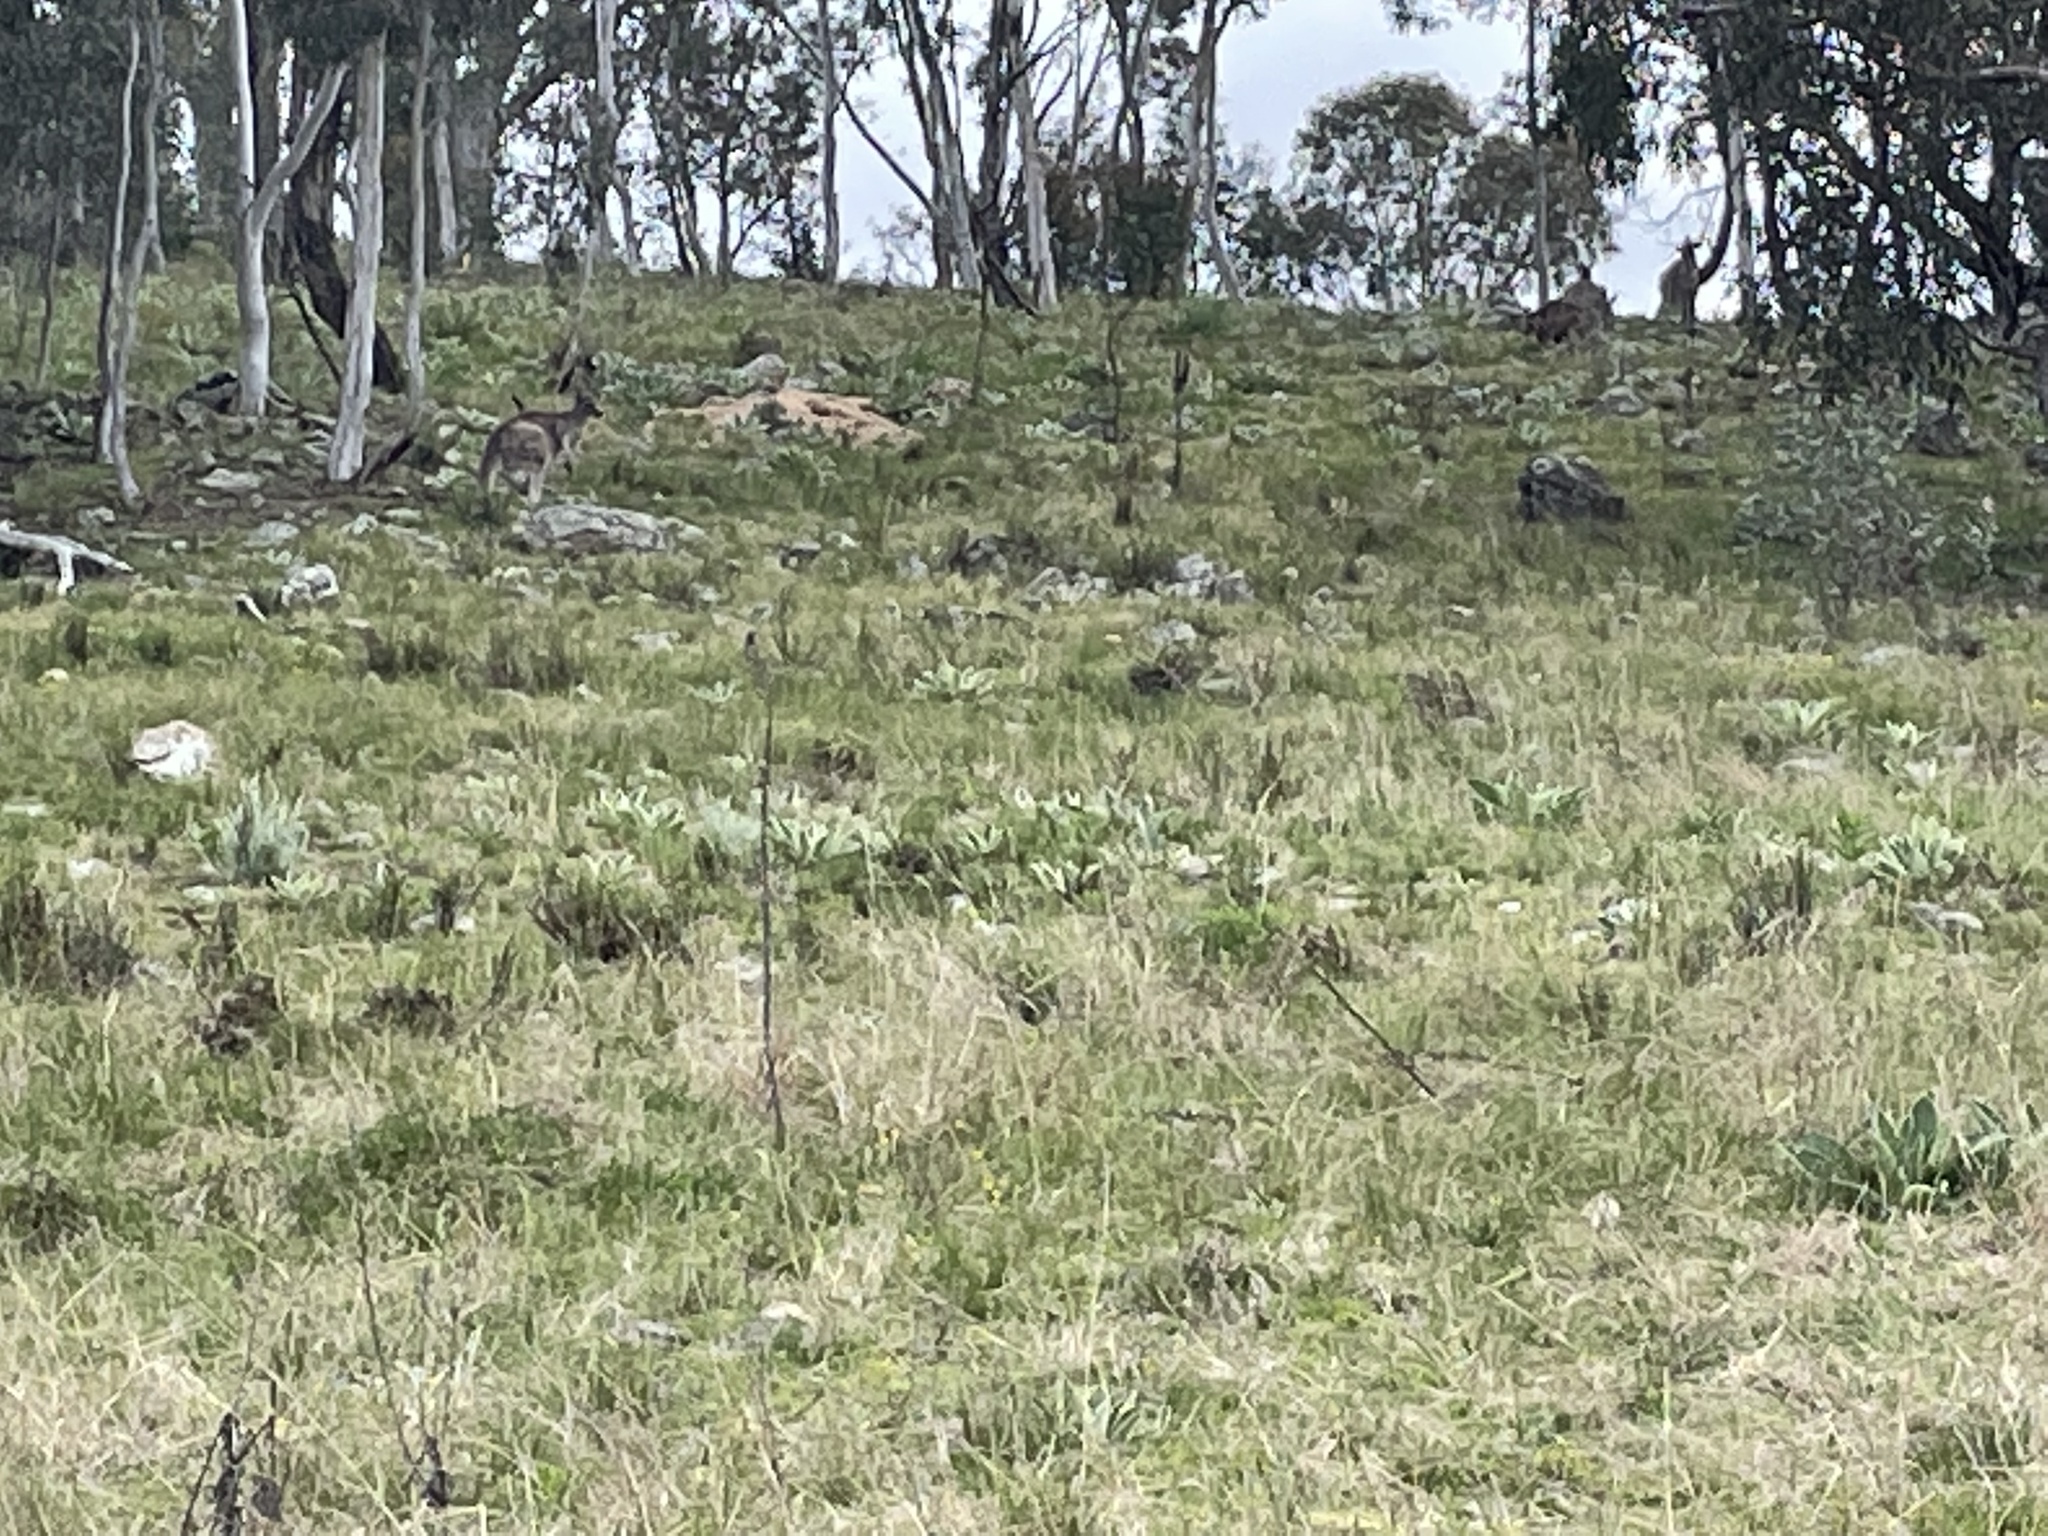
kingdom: Animalia
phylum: Chordata
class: Mammalia
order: Diprotodontia
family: Macropodidae
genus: Macropus
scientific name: Macropus giganteus
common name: Eastern grey kangaroo
